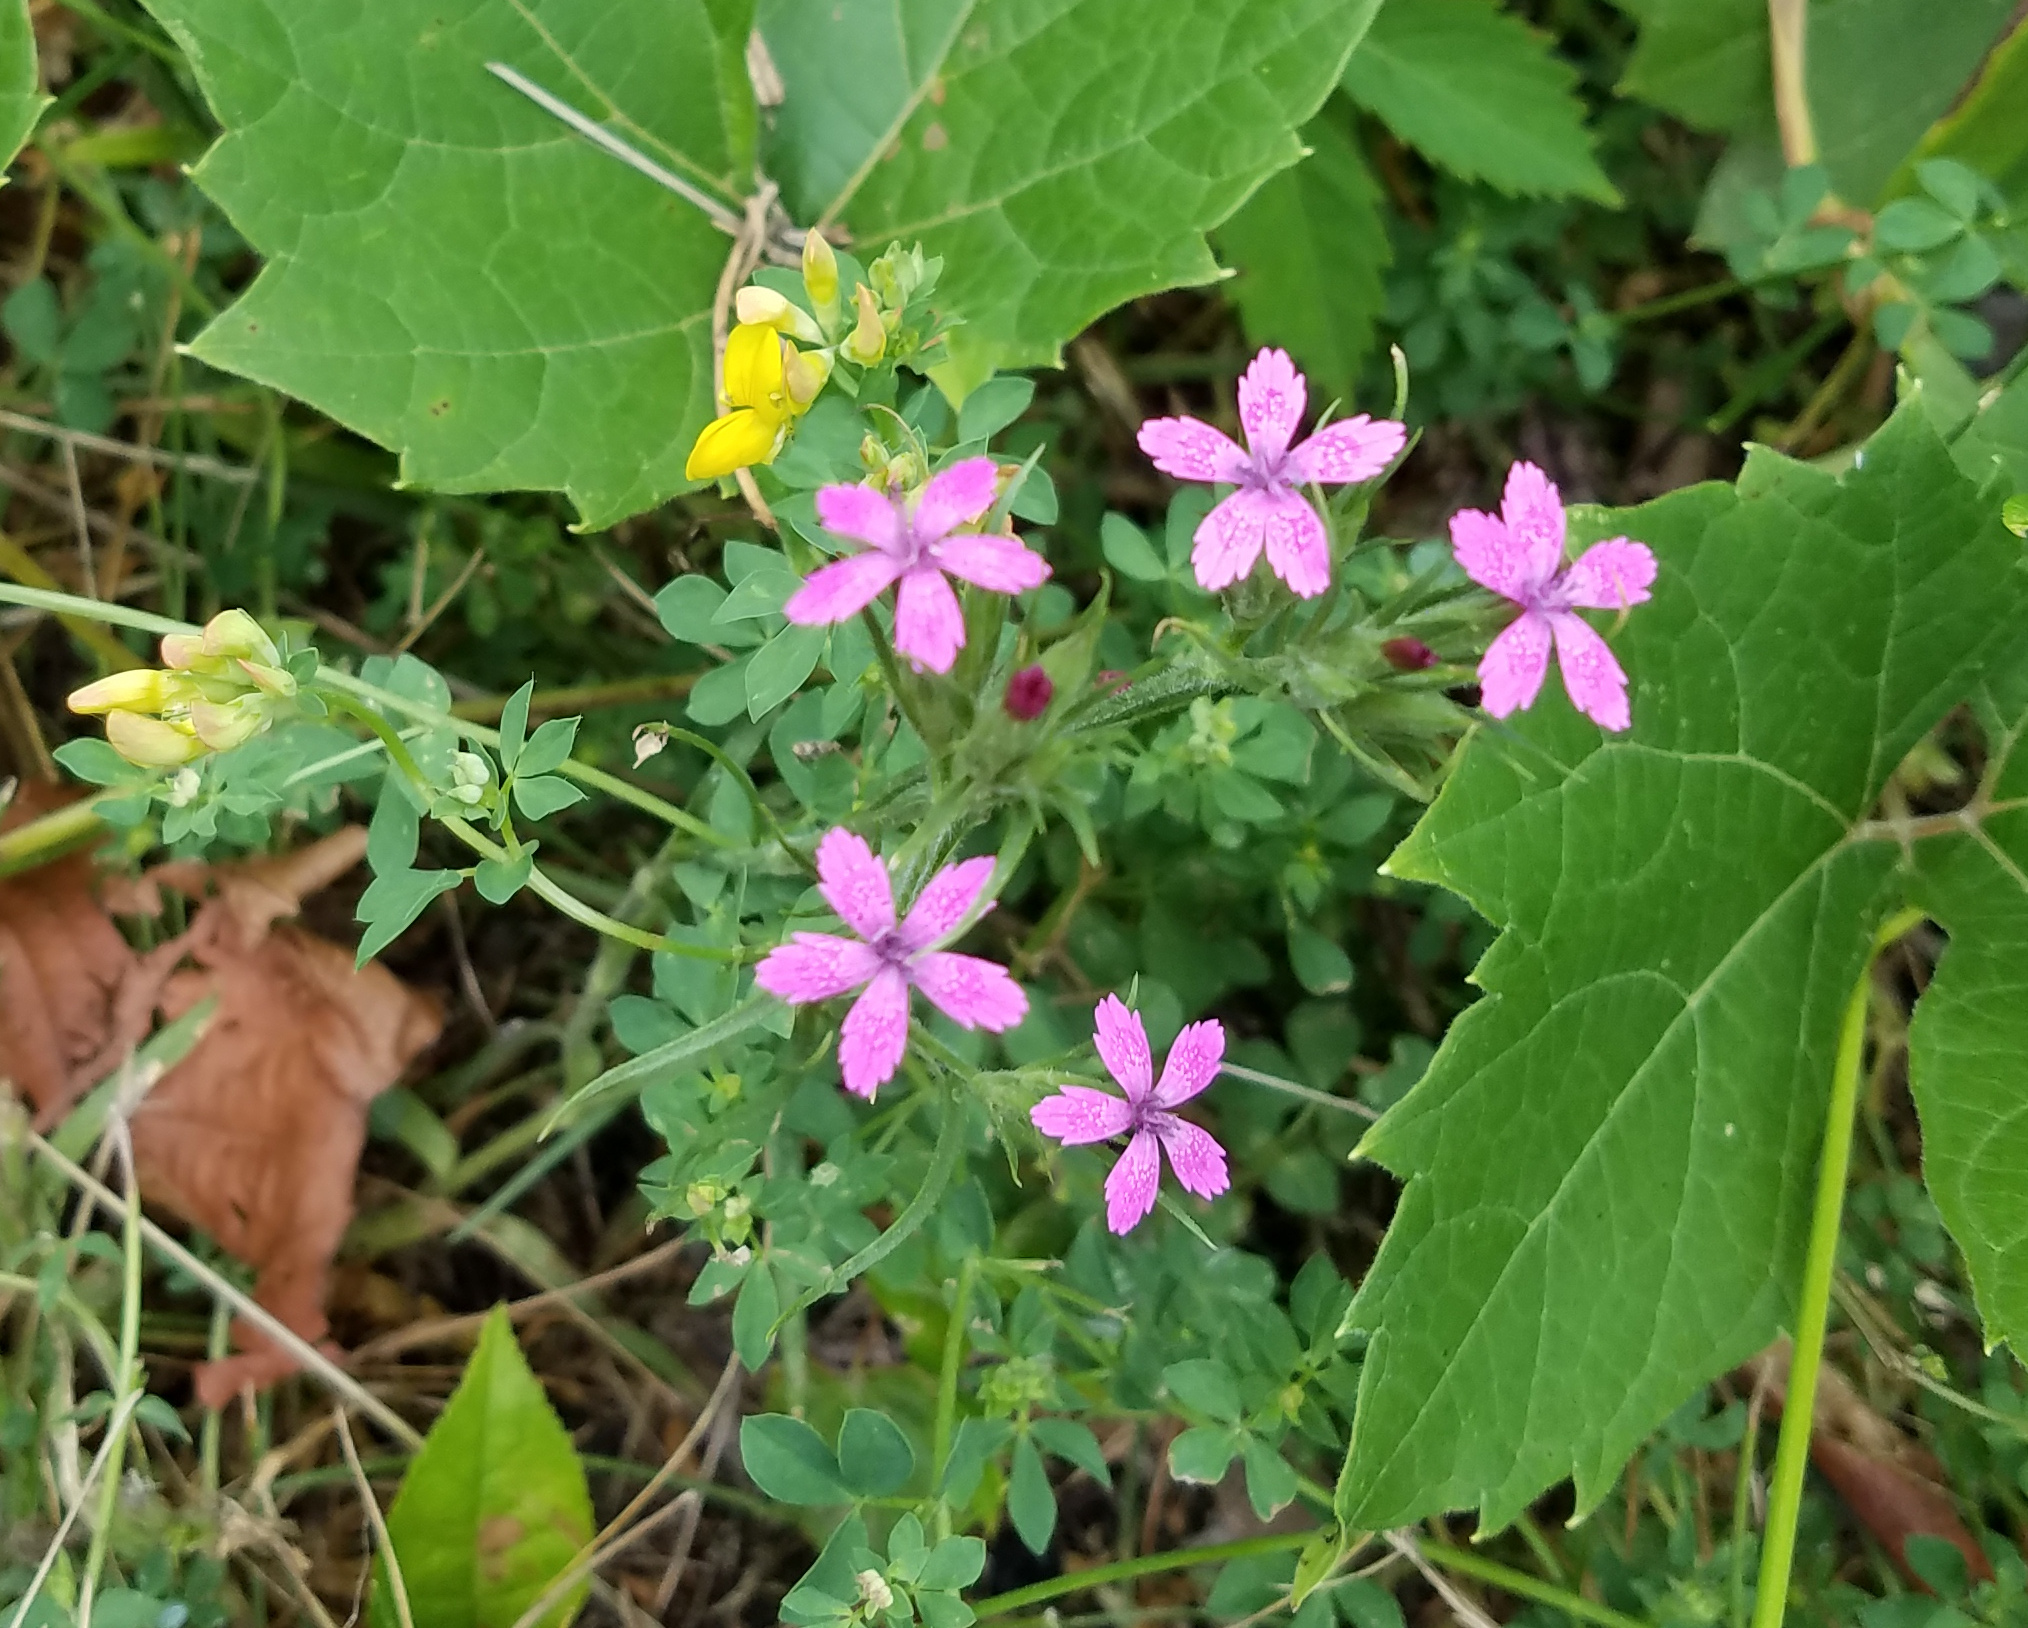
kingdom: Plantae
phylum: Tracheophyta
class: Magnoliopsida
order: Caryophyllales
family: Caryophyllaceae
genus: Dianthus
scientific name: Dianthus armeria
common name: Deptford pink
